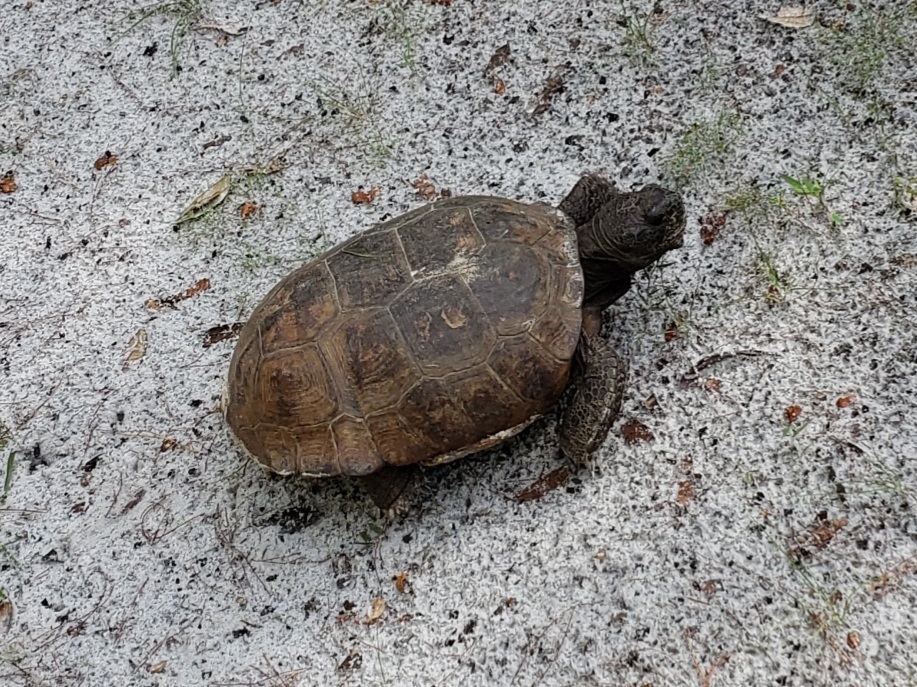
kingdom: Animalia
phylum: Chordata
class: Testudines
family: Testudinidae
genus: Gopherus
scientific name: Gopherus polyphemus
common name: Florida gopher tortoise
